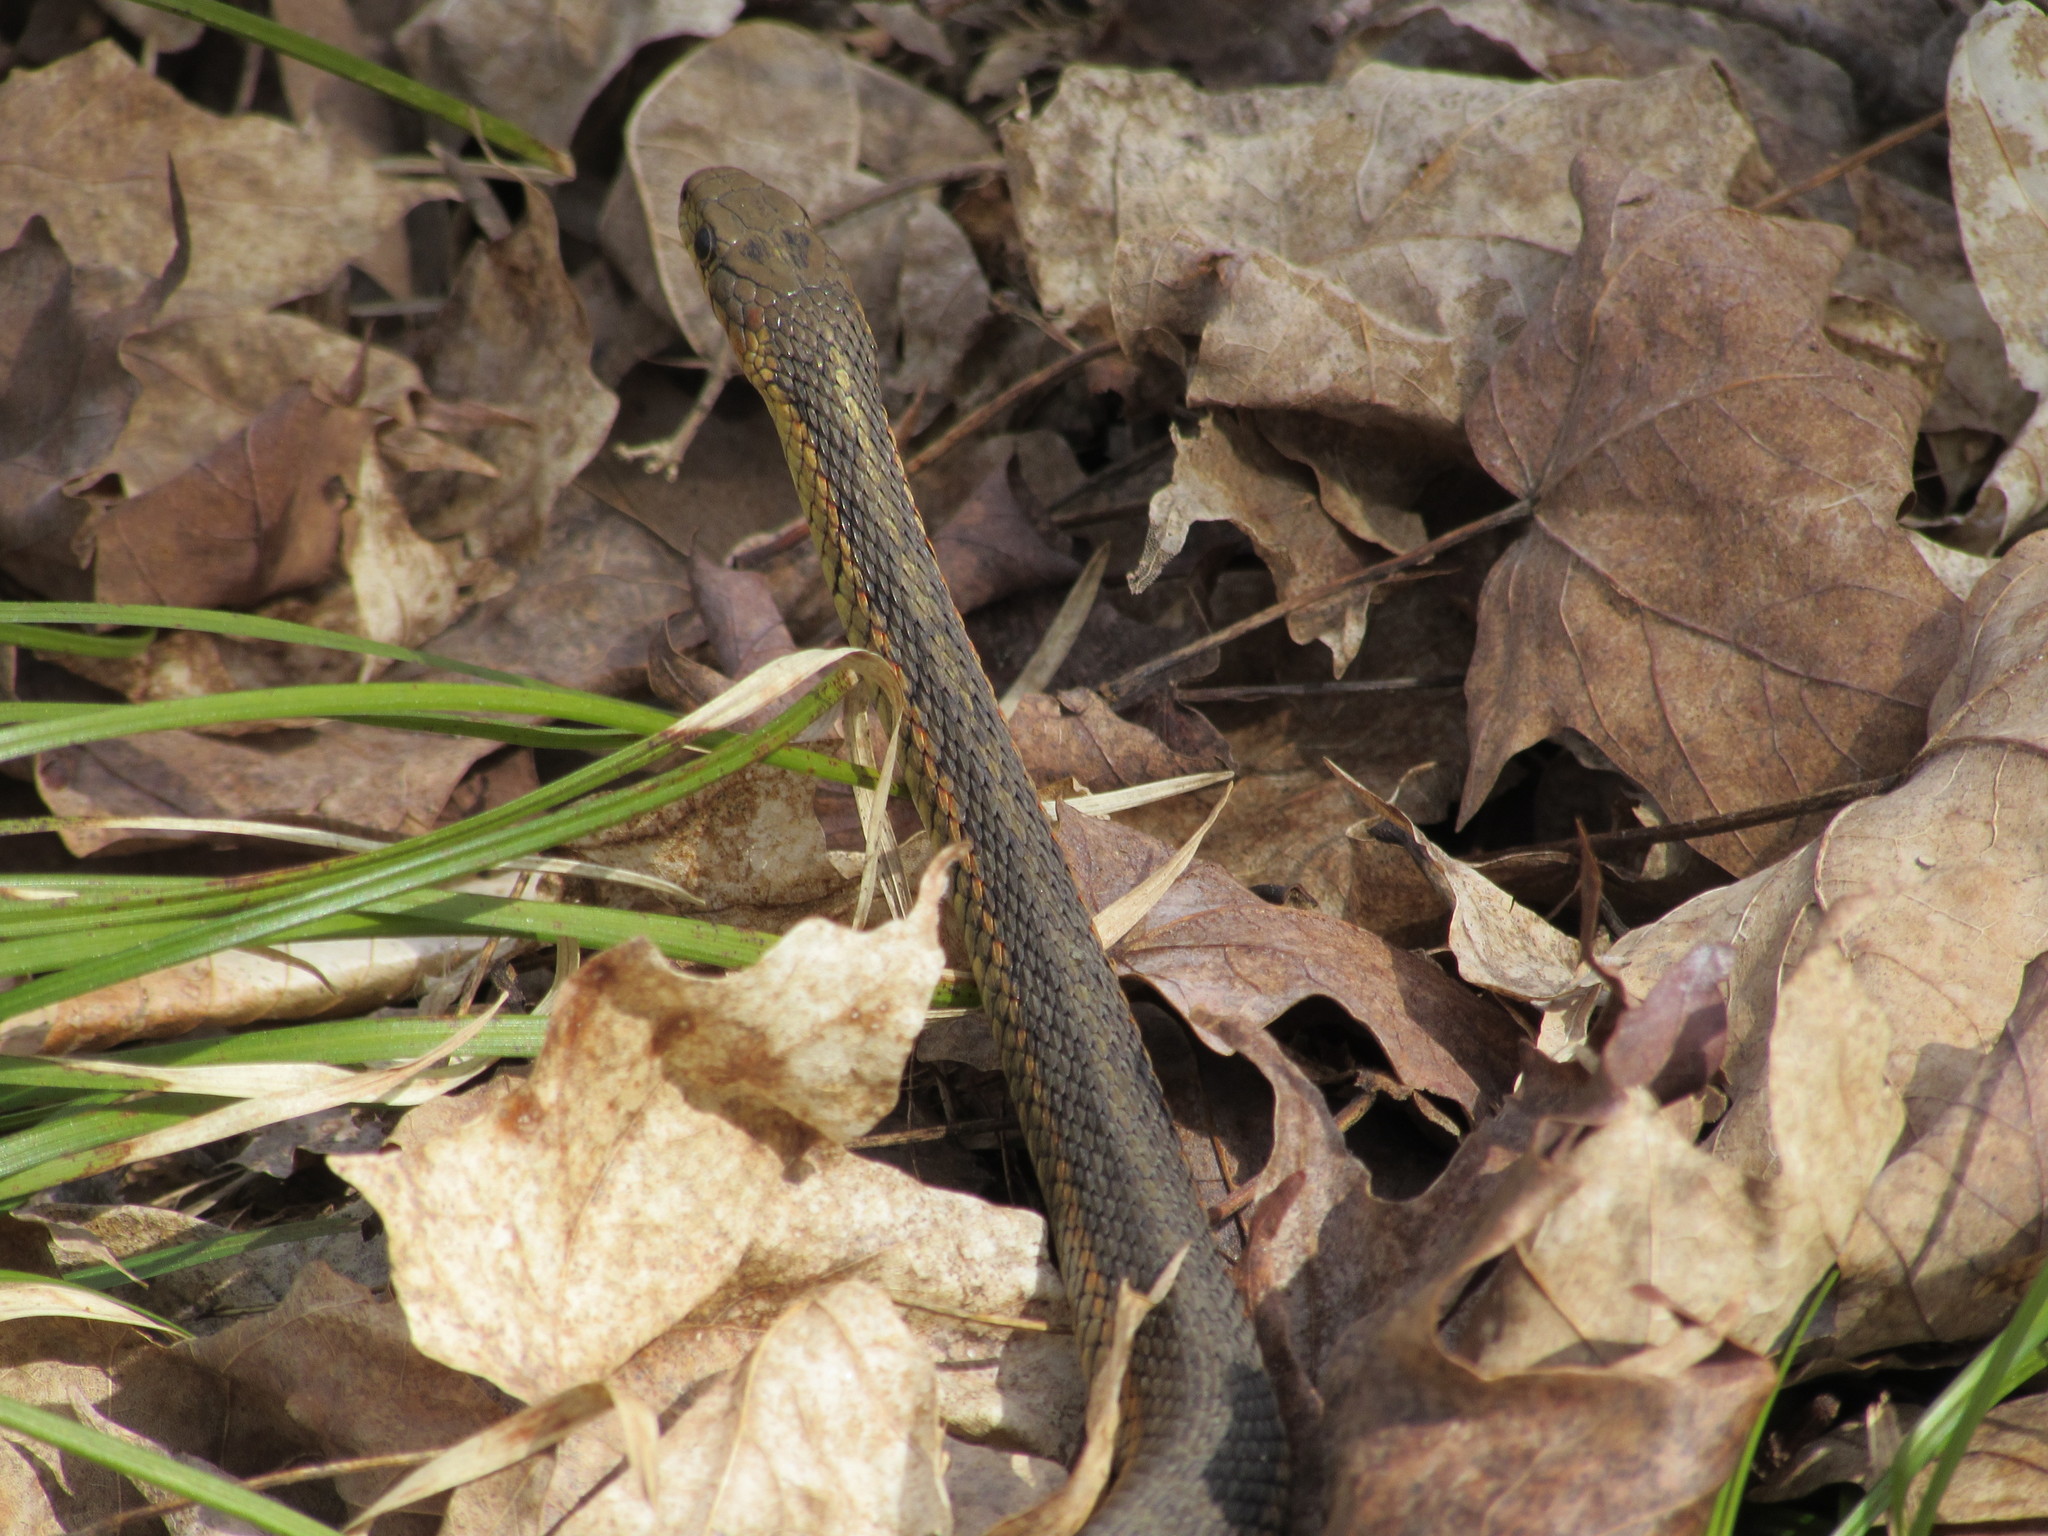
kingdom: Animalia
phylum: Chordata
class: Squamata
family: Colubridae
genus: Thamnophis
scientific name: Thamnophis sirtalis
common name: Common garter snake
